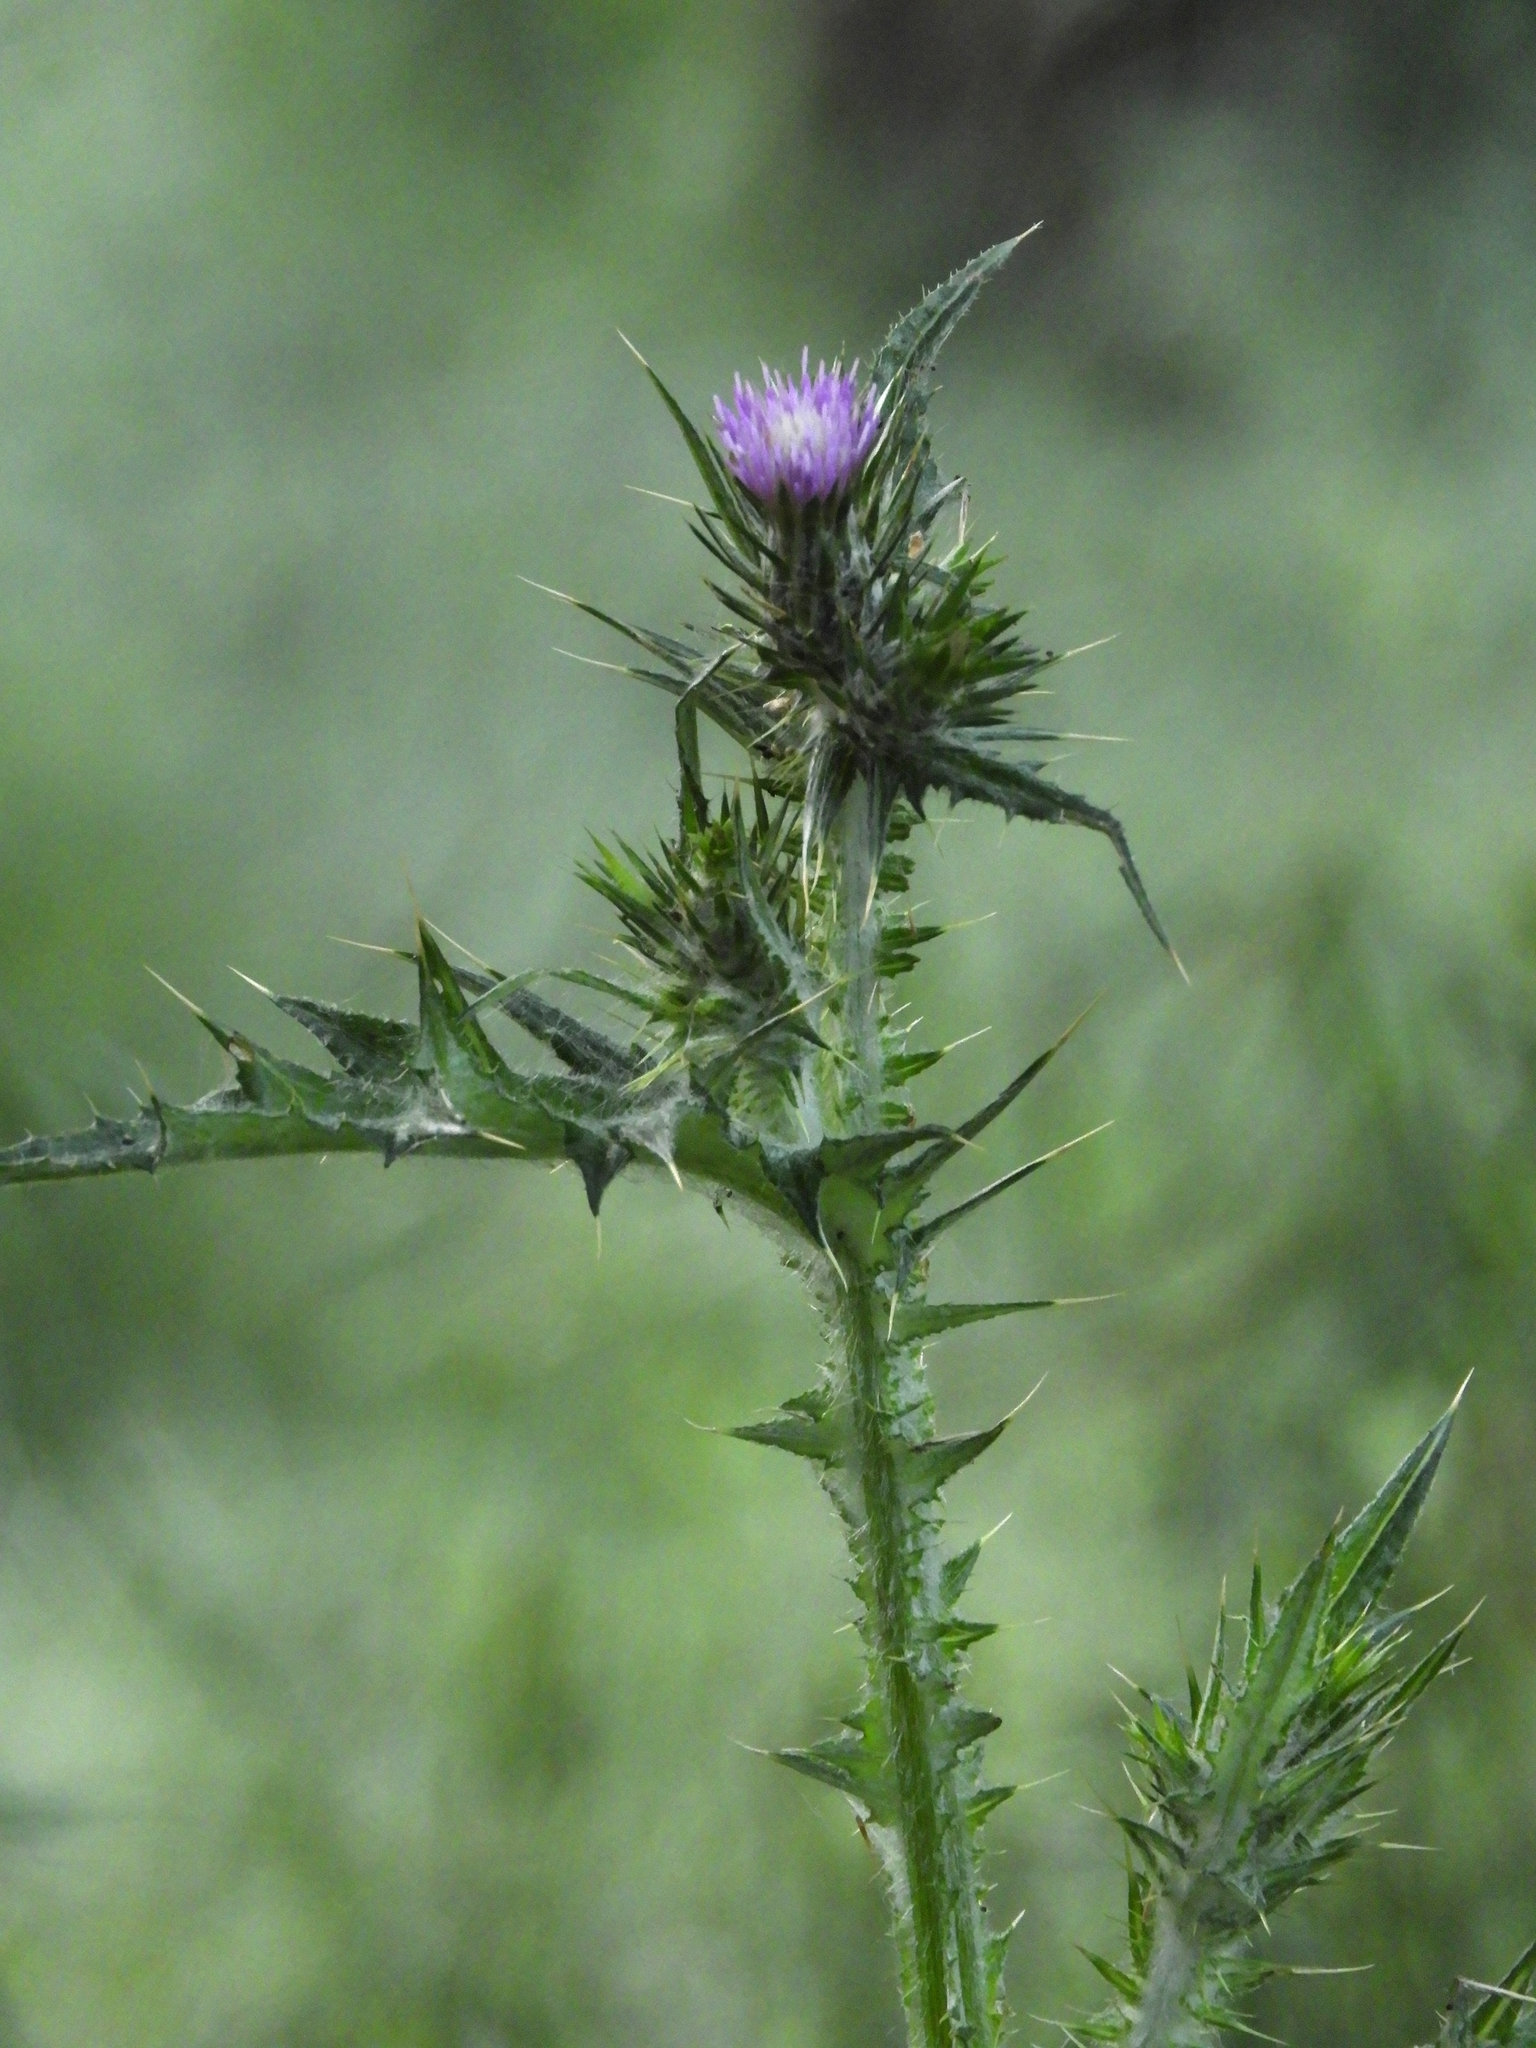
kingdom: Plantae
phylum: Tracheophyta
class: Magnoliopsida
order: Asterales
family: Asteraceae
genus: Carduus
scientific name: Carduus pycnocephalus
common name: Plymouth thistle
